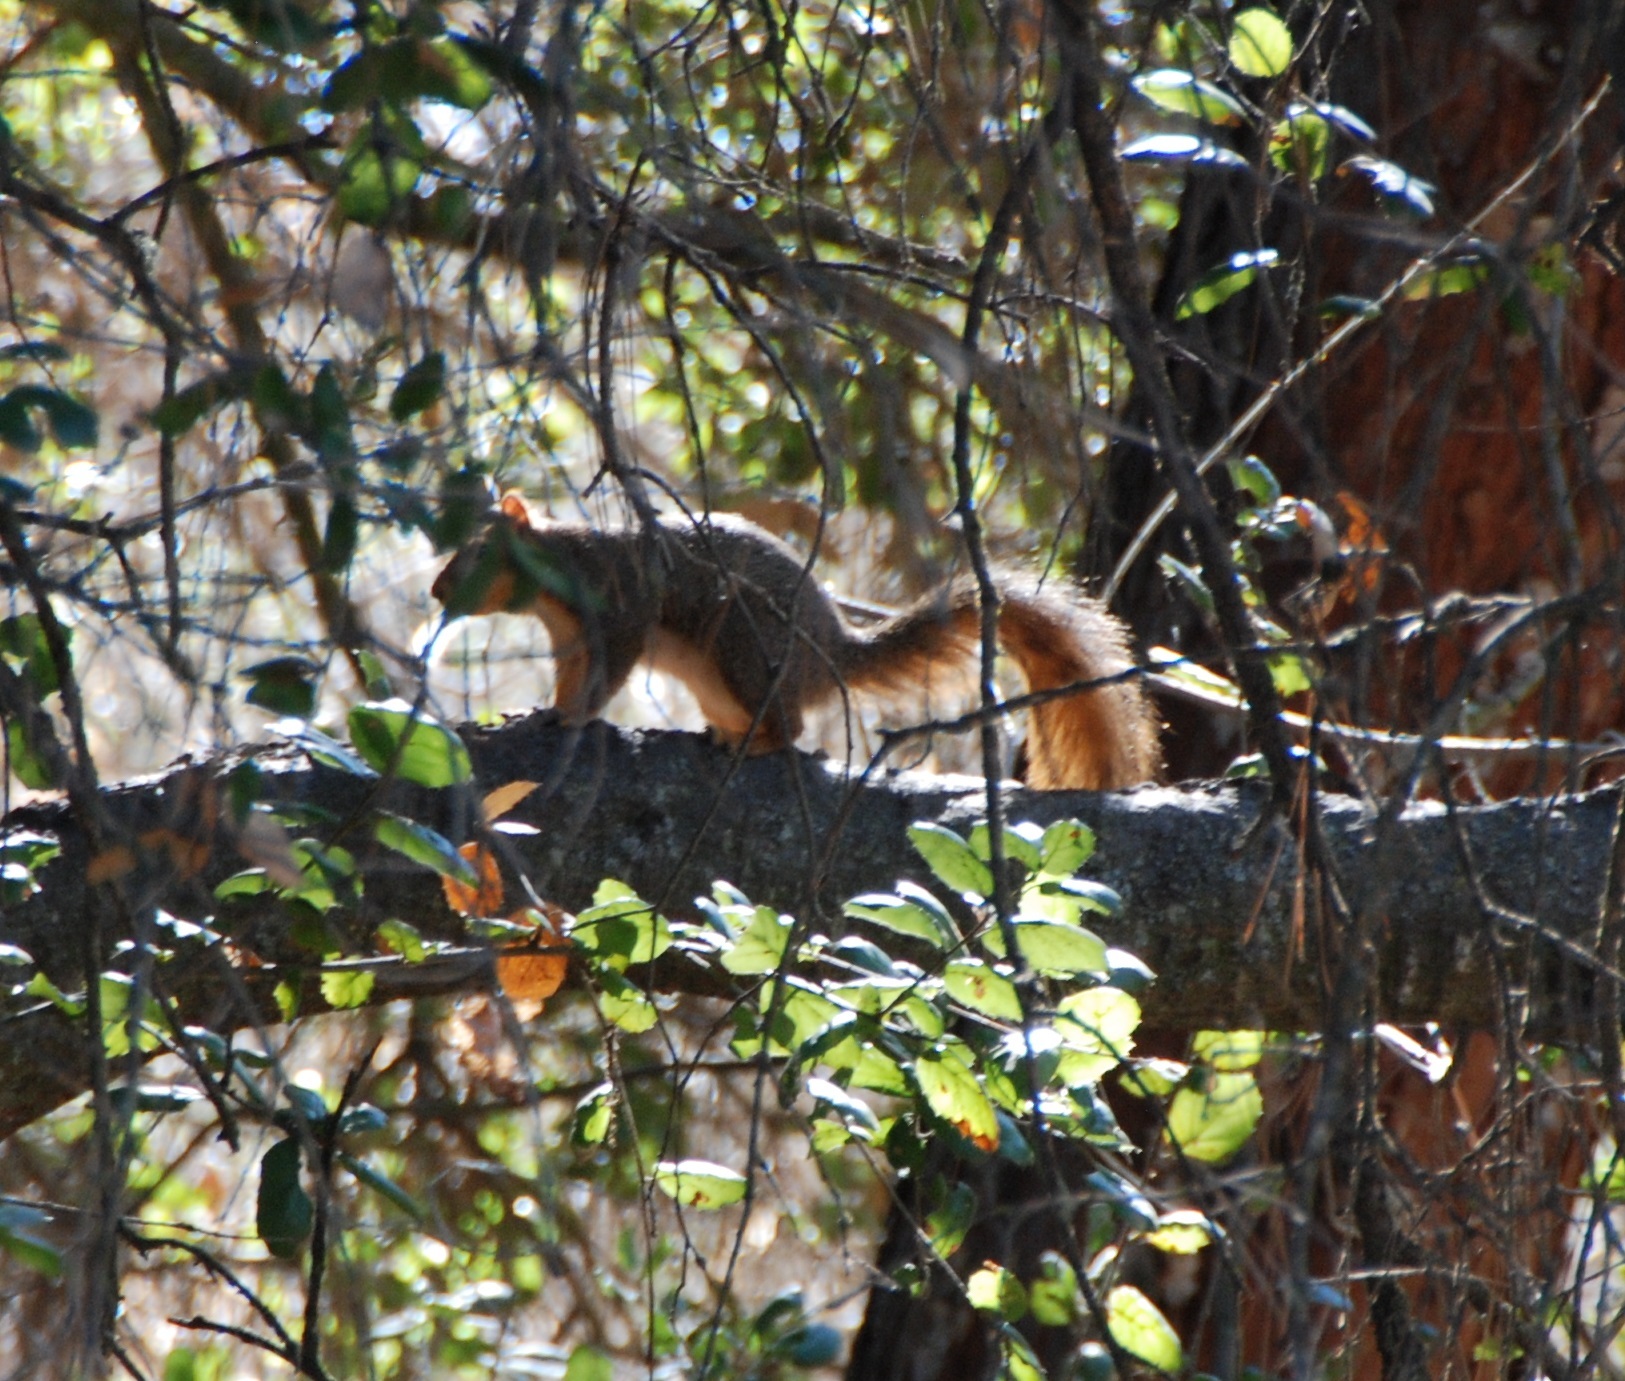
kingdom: Animalia
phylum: Chordata
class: Mammalia
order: Rodentia
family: Sciuridae
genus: Sciurus
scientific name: Sciurus niger
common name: Fox squirrel
